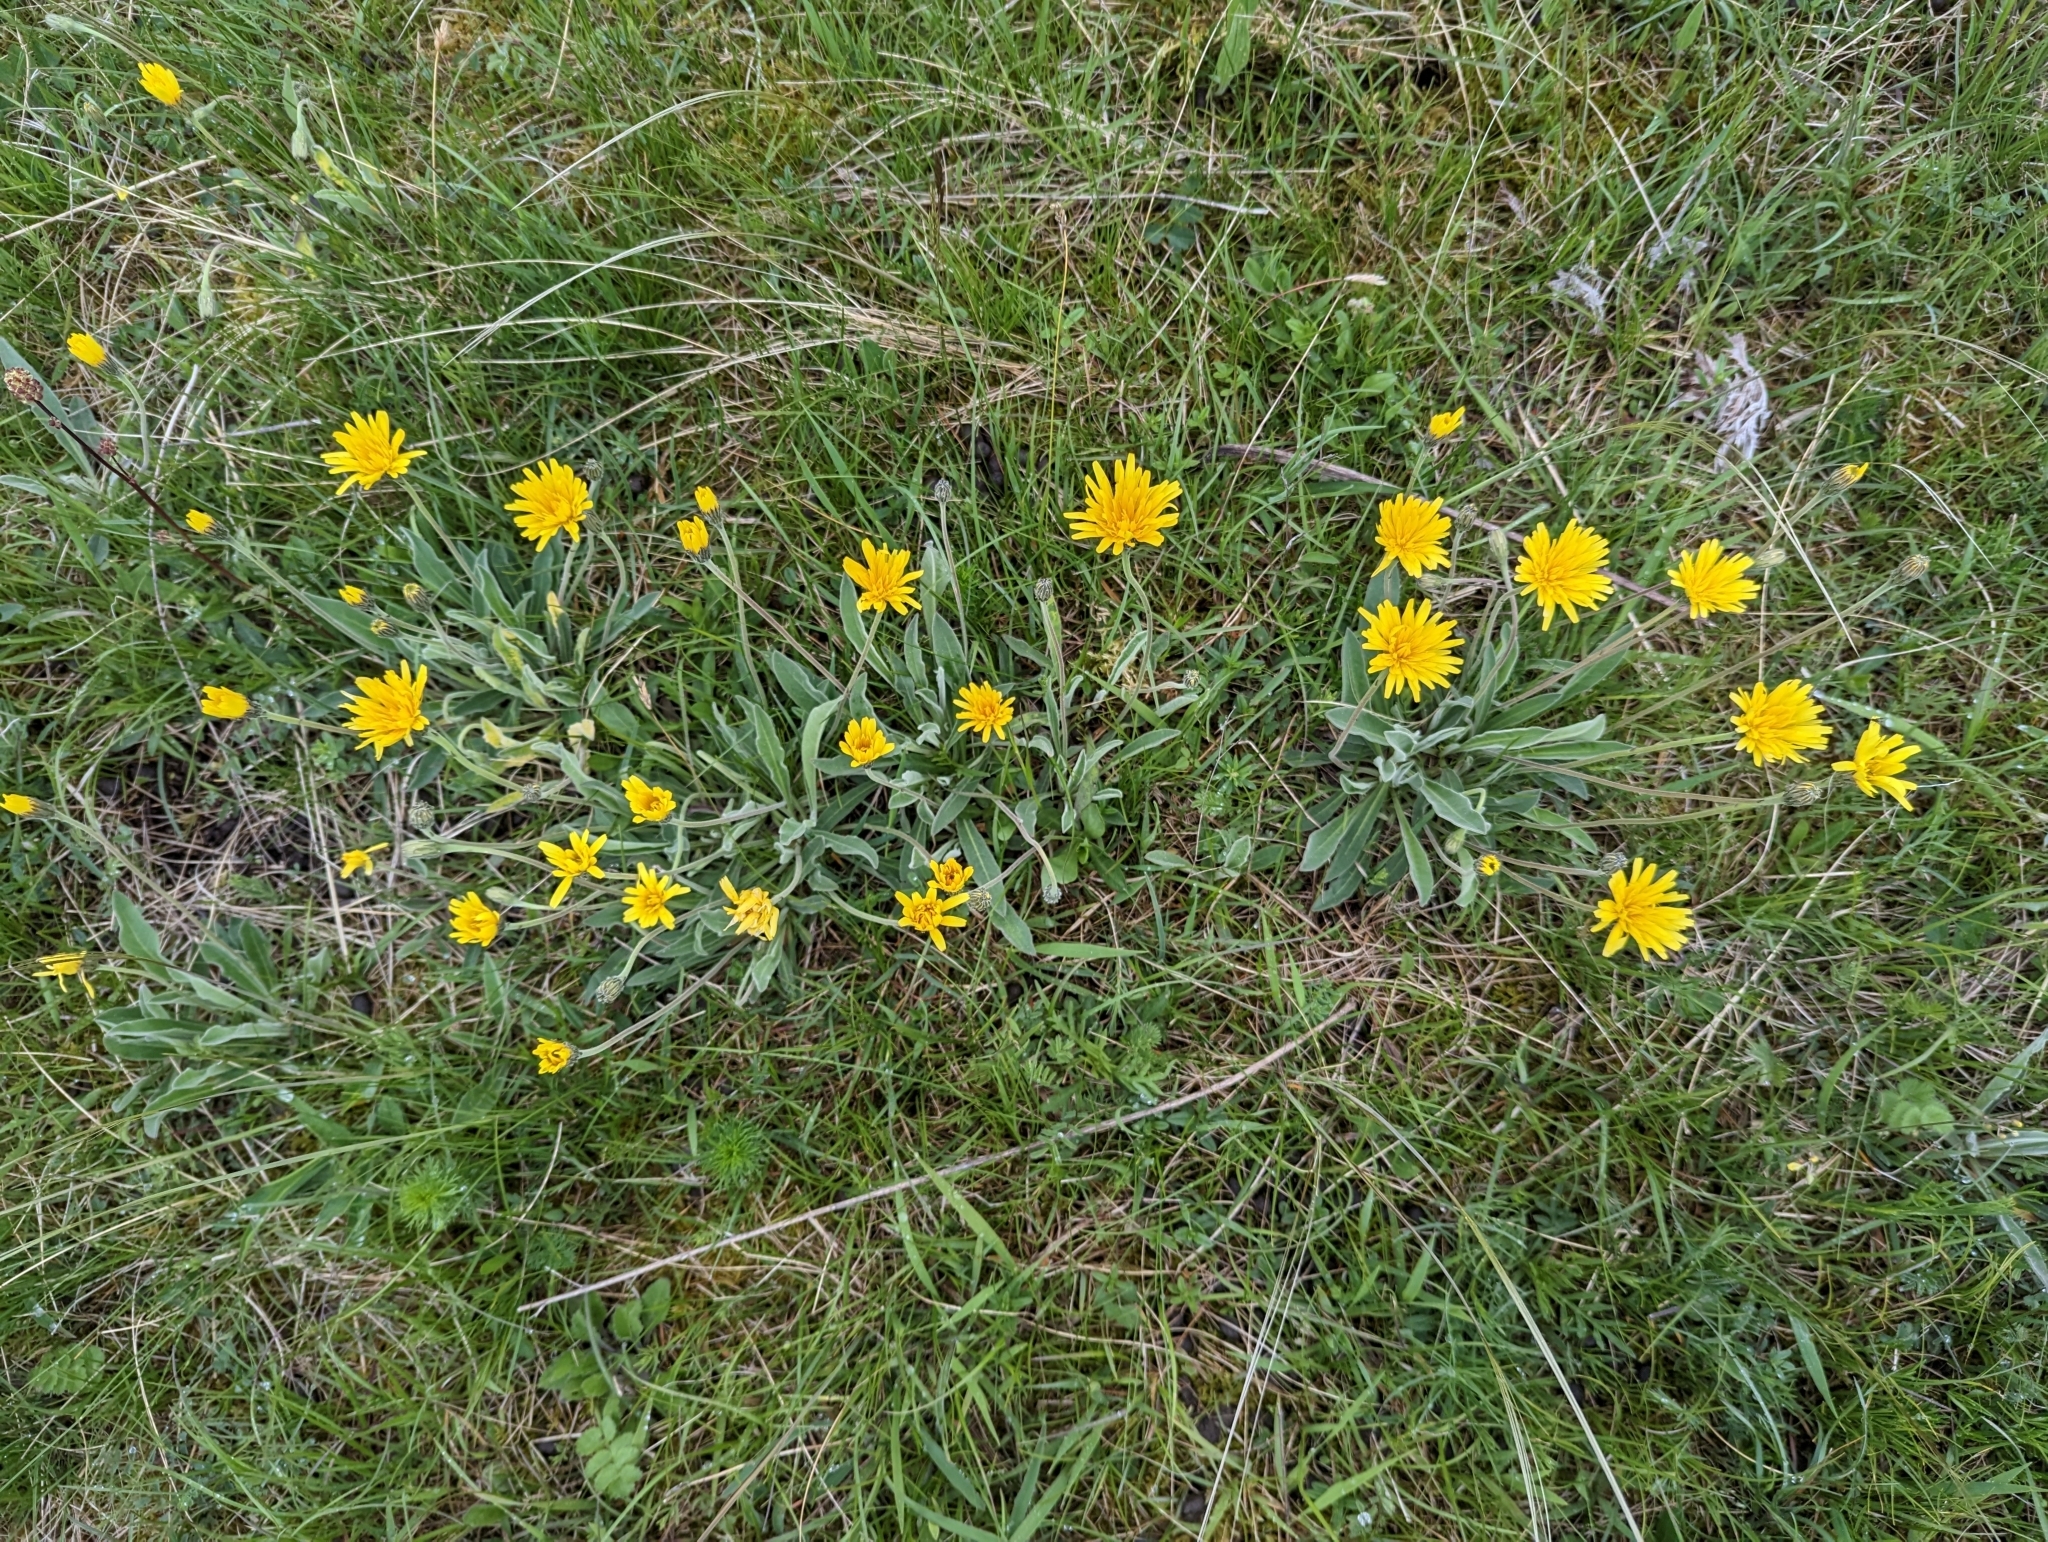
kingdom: Plantae
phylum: Tracheophyta
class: Magnoliopsida
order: Asterales
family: Asteraceae
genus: Leontodon
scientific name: Leontodon incanus
